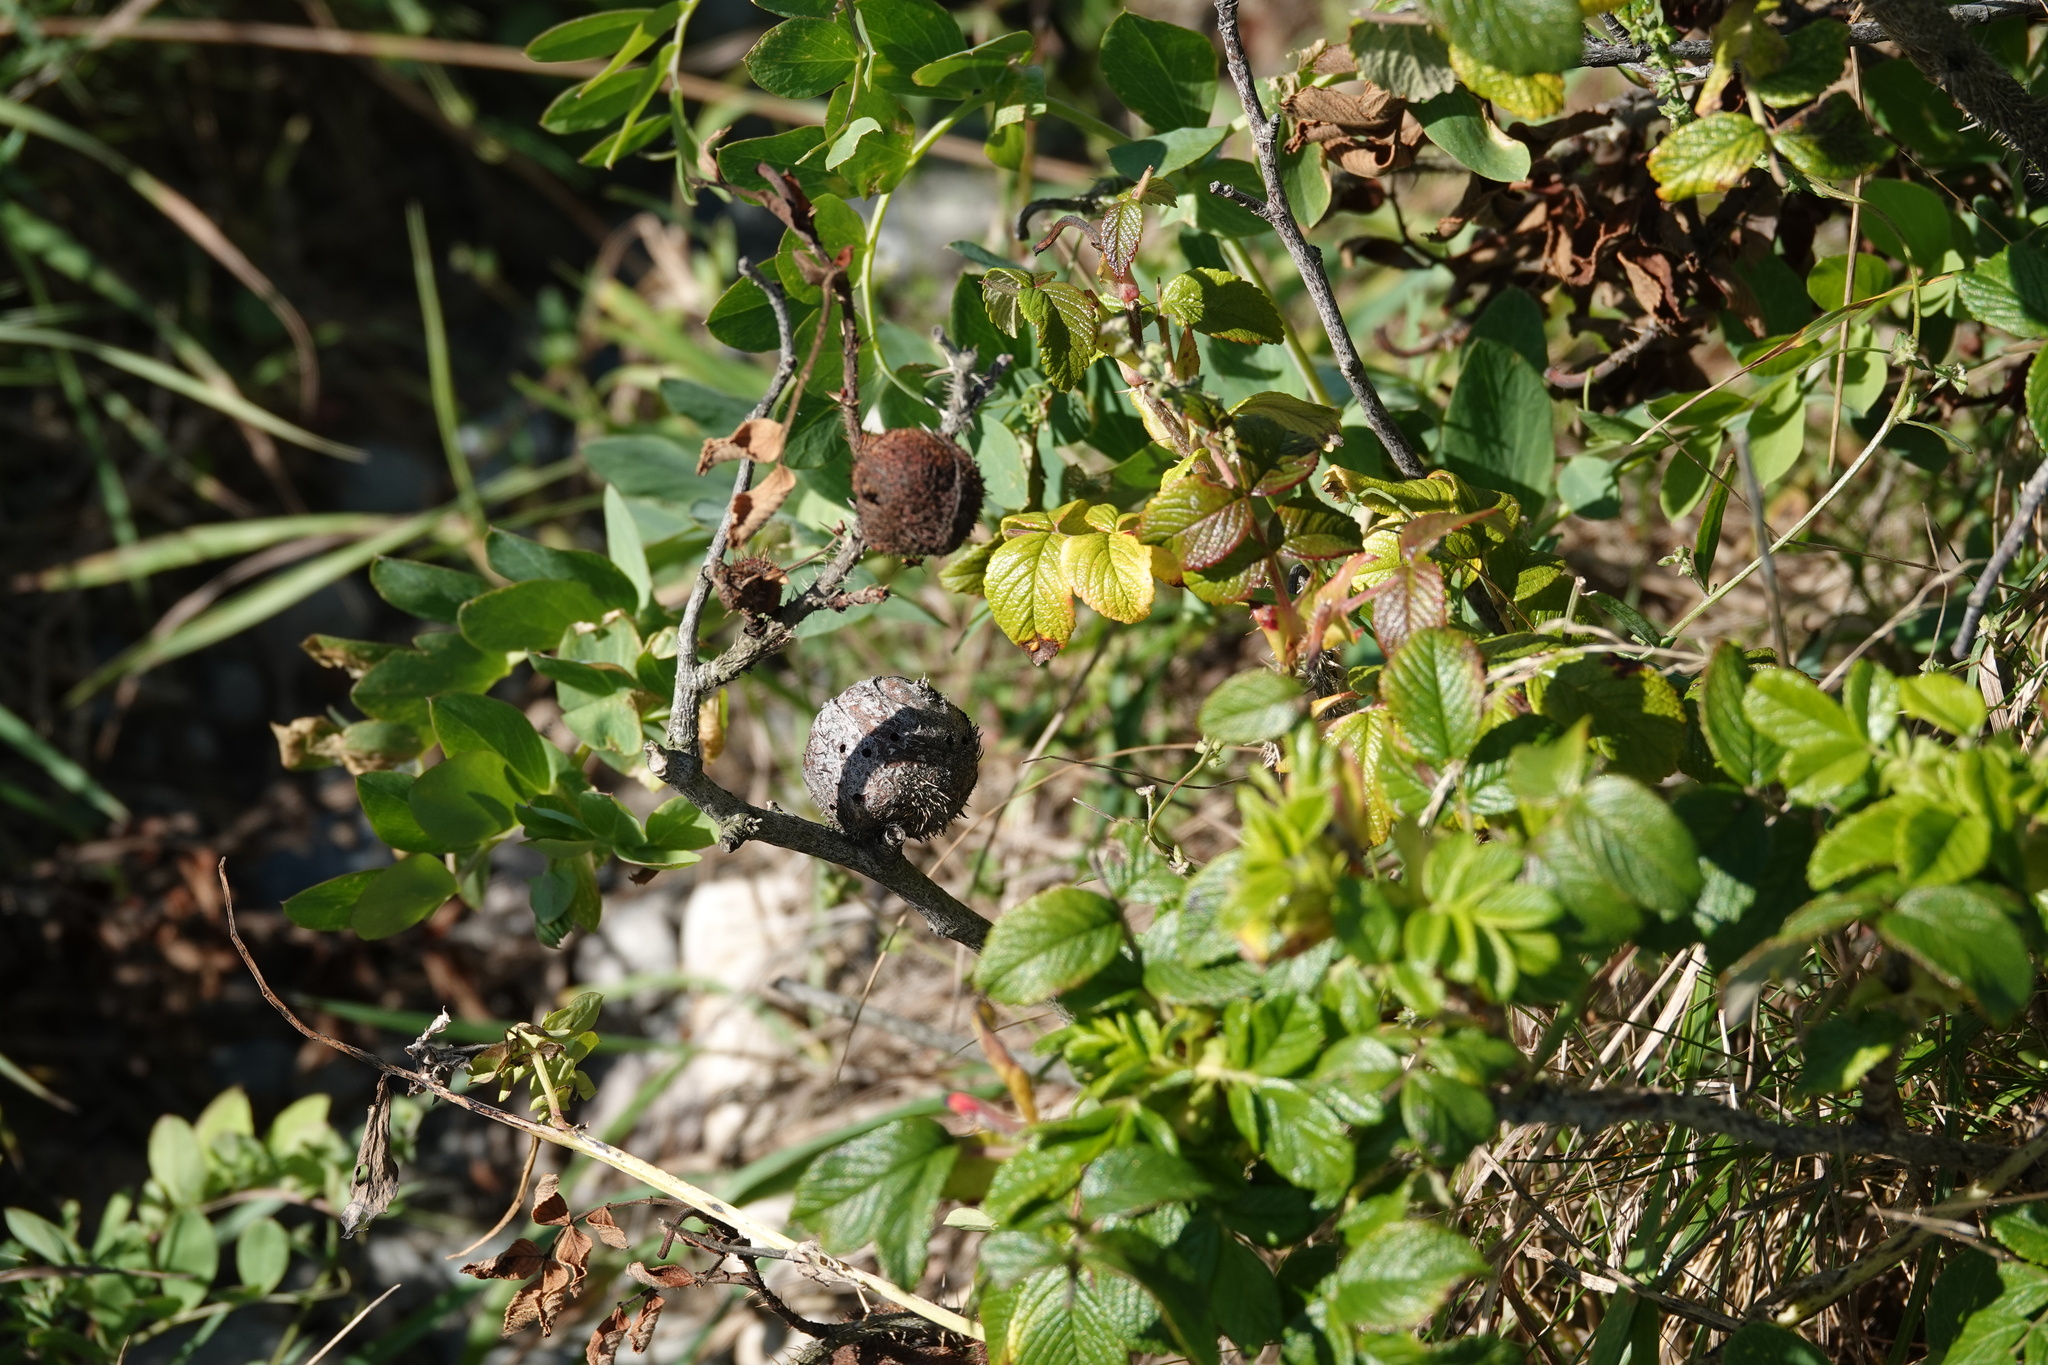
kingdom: Animalia
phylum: Arthropoda
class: Insecta
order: Hymenoptera
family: Cynipidae
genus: Diplolepis
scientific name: Diplolepis spinosa
